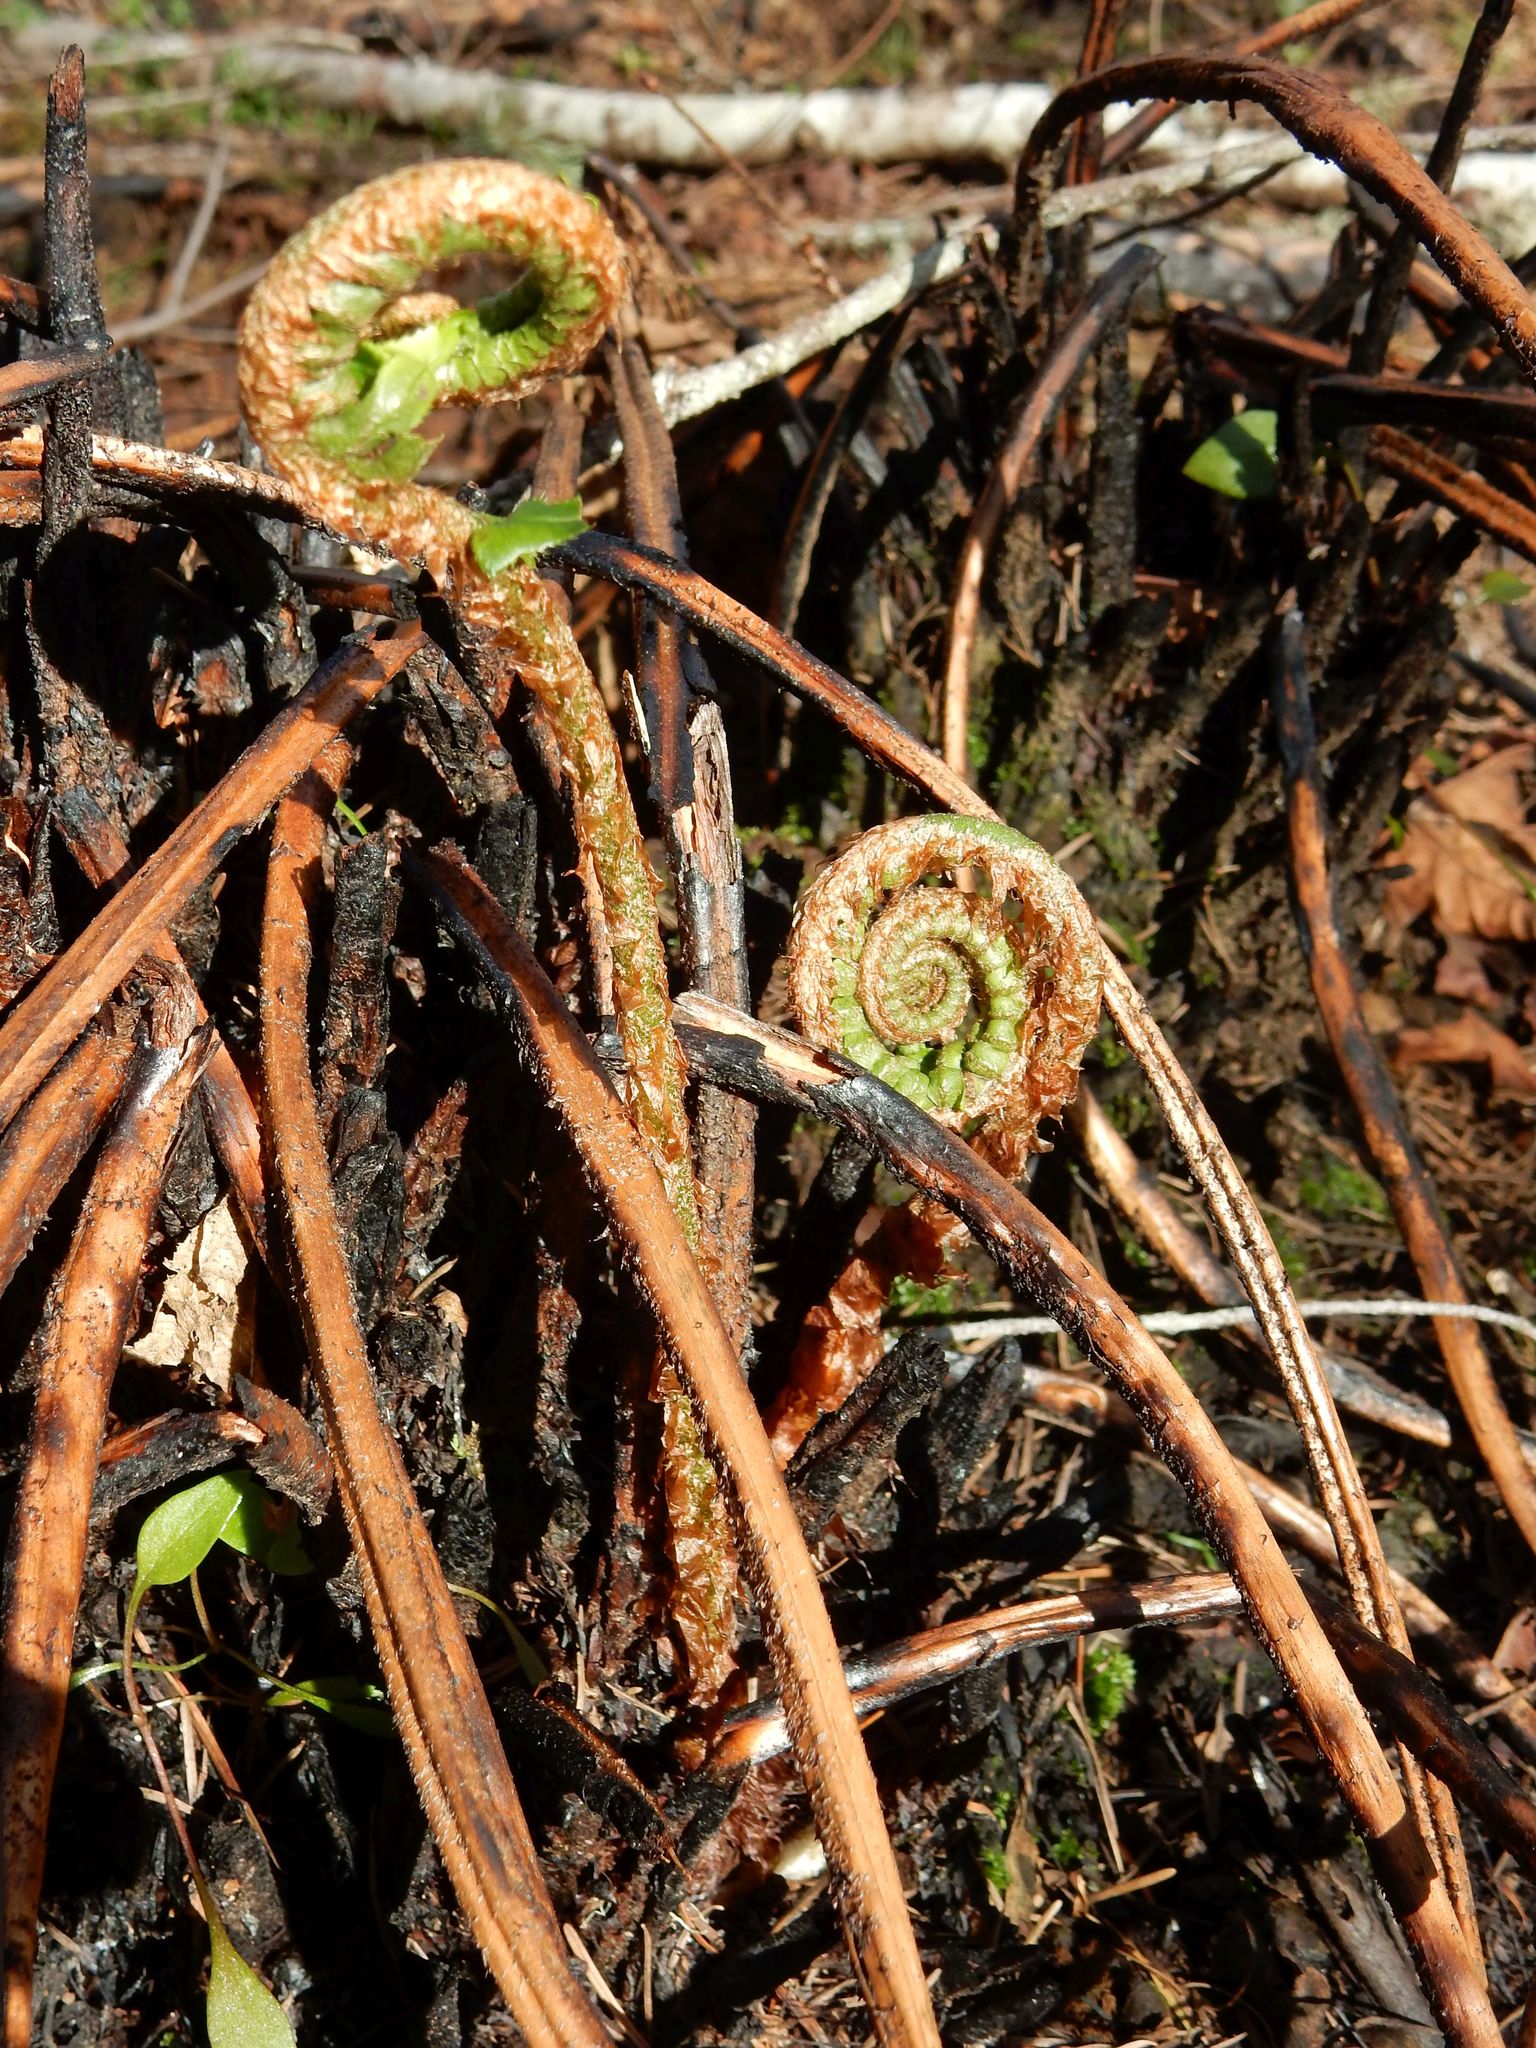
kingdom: Plantae
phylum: Tracheophyta
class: Polypodiopsida
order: Polypodiales
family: Dryopteridaceae
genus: Polystichum
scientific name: Polystichum munitum
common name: Western sword-fern
